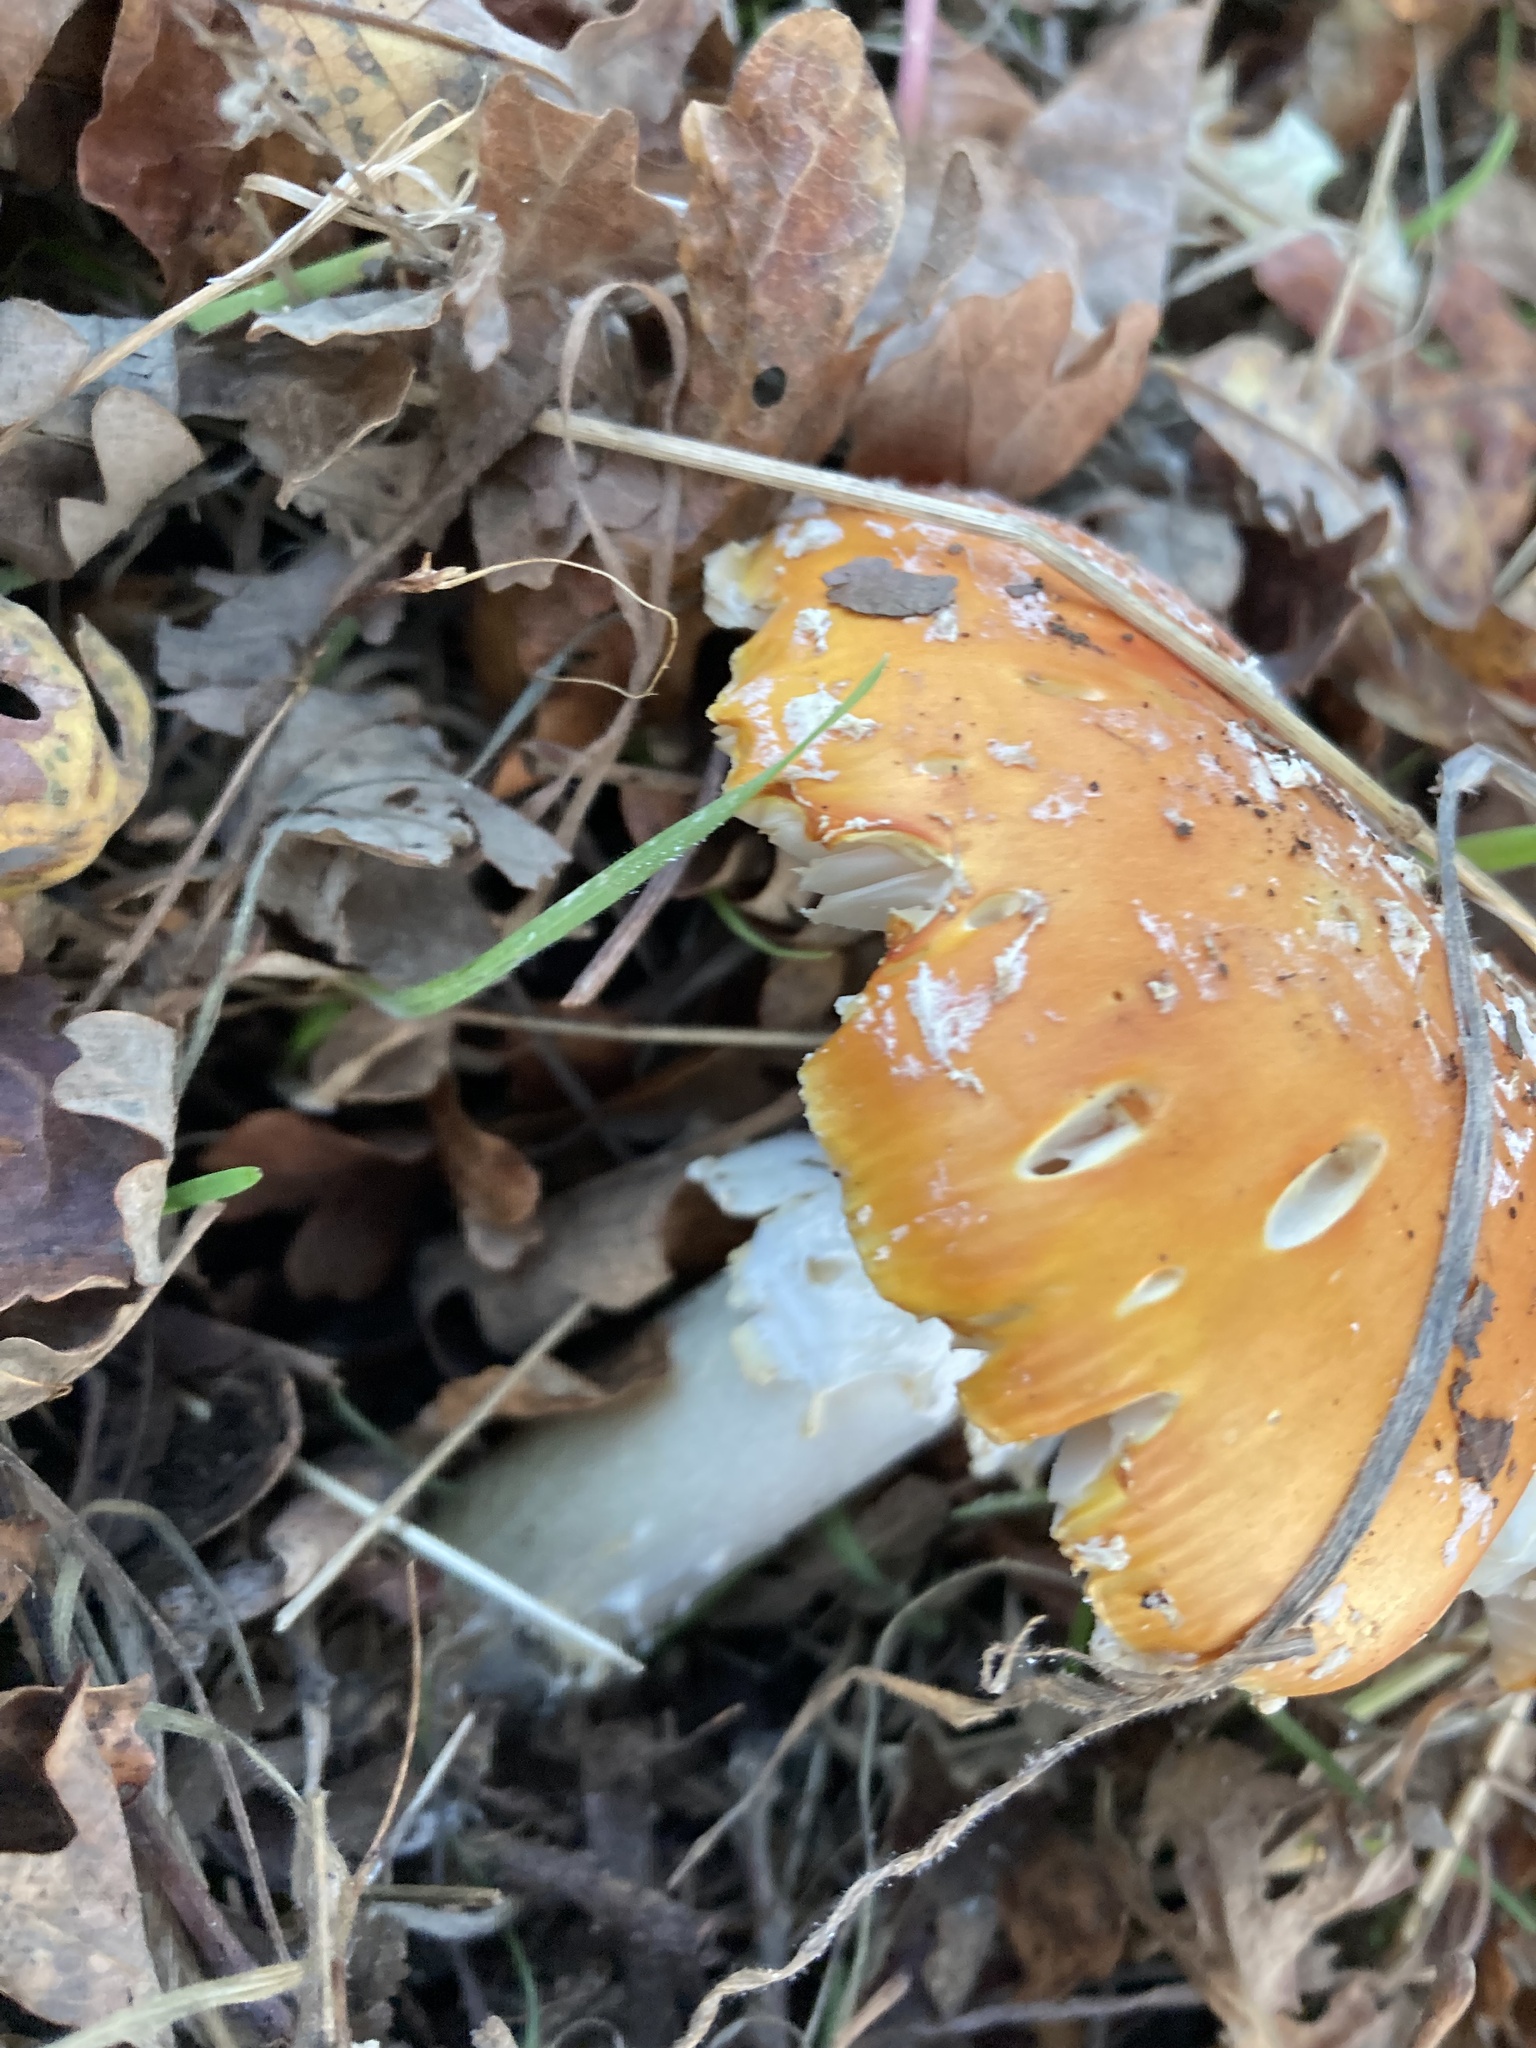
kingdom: Fungi
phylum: Basidiomycota
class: Agaricomycetes
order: Agaricales
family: Amanitaceae
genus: Amanita
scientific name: Amanita muscaria
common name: Fly agaric
